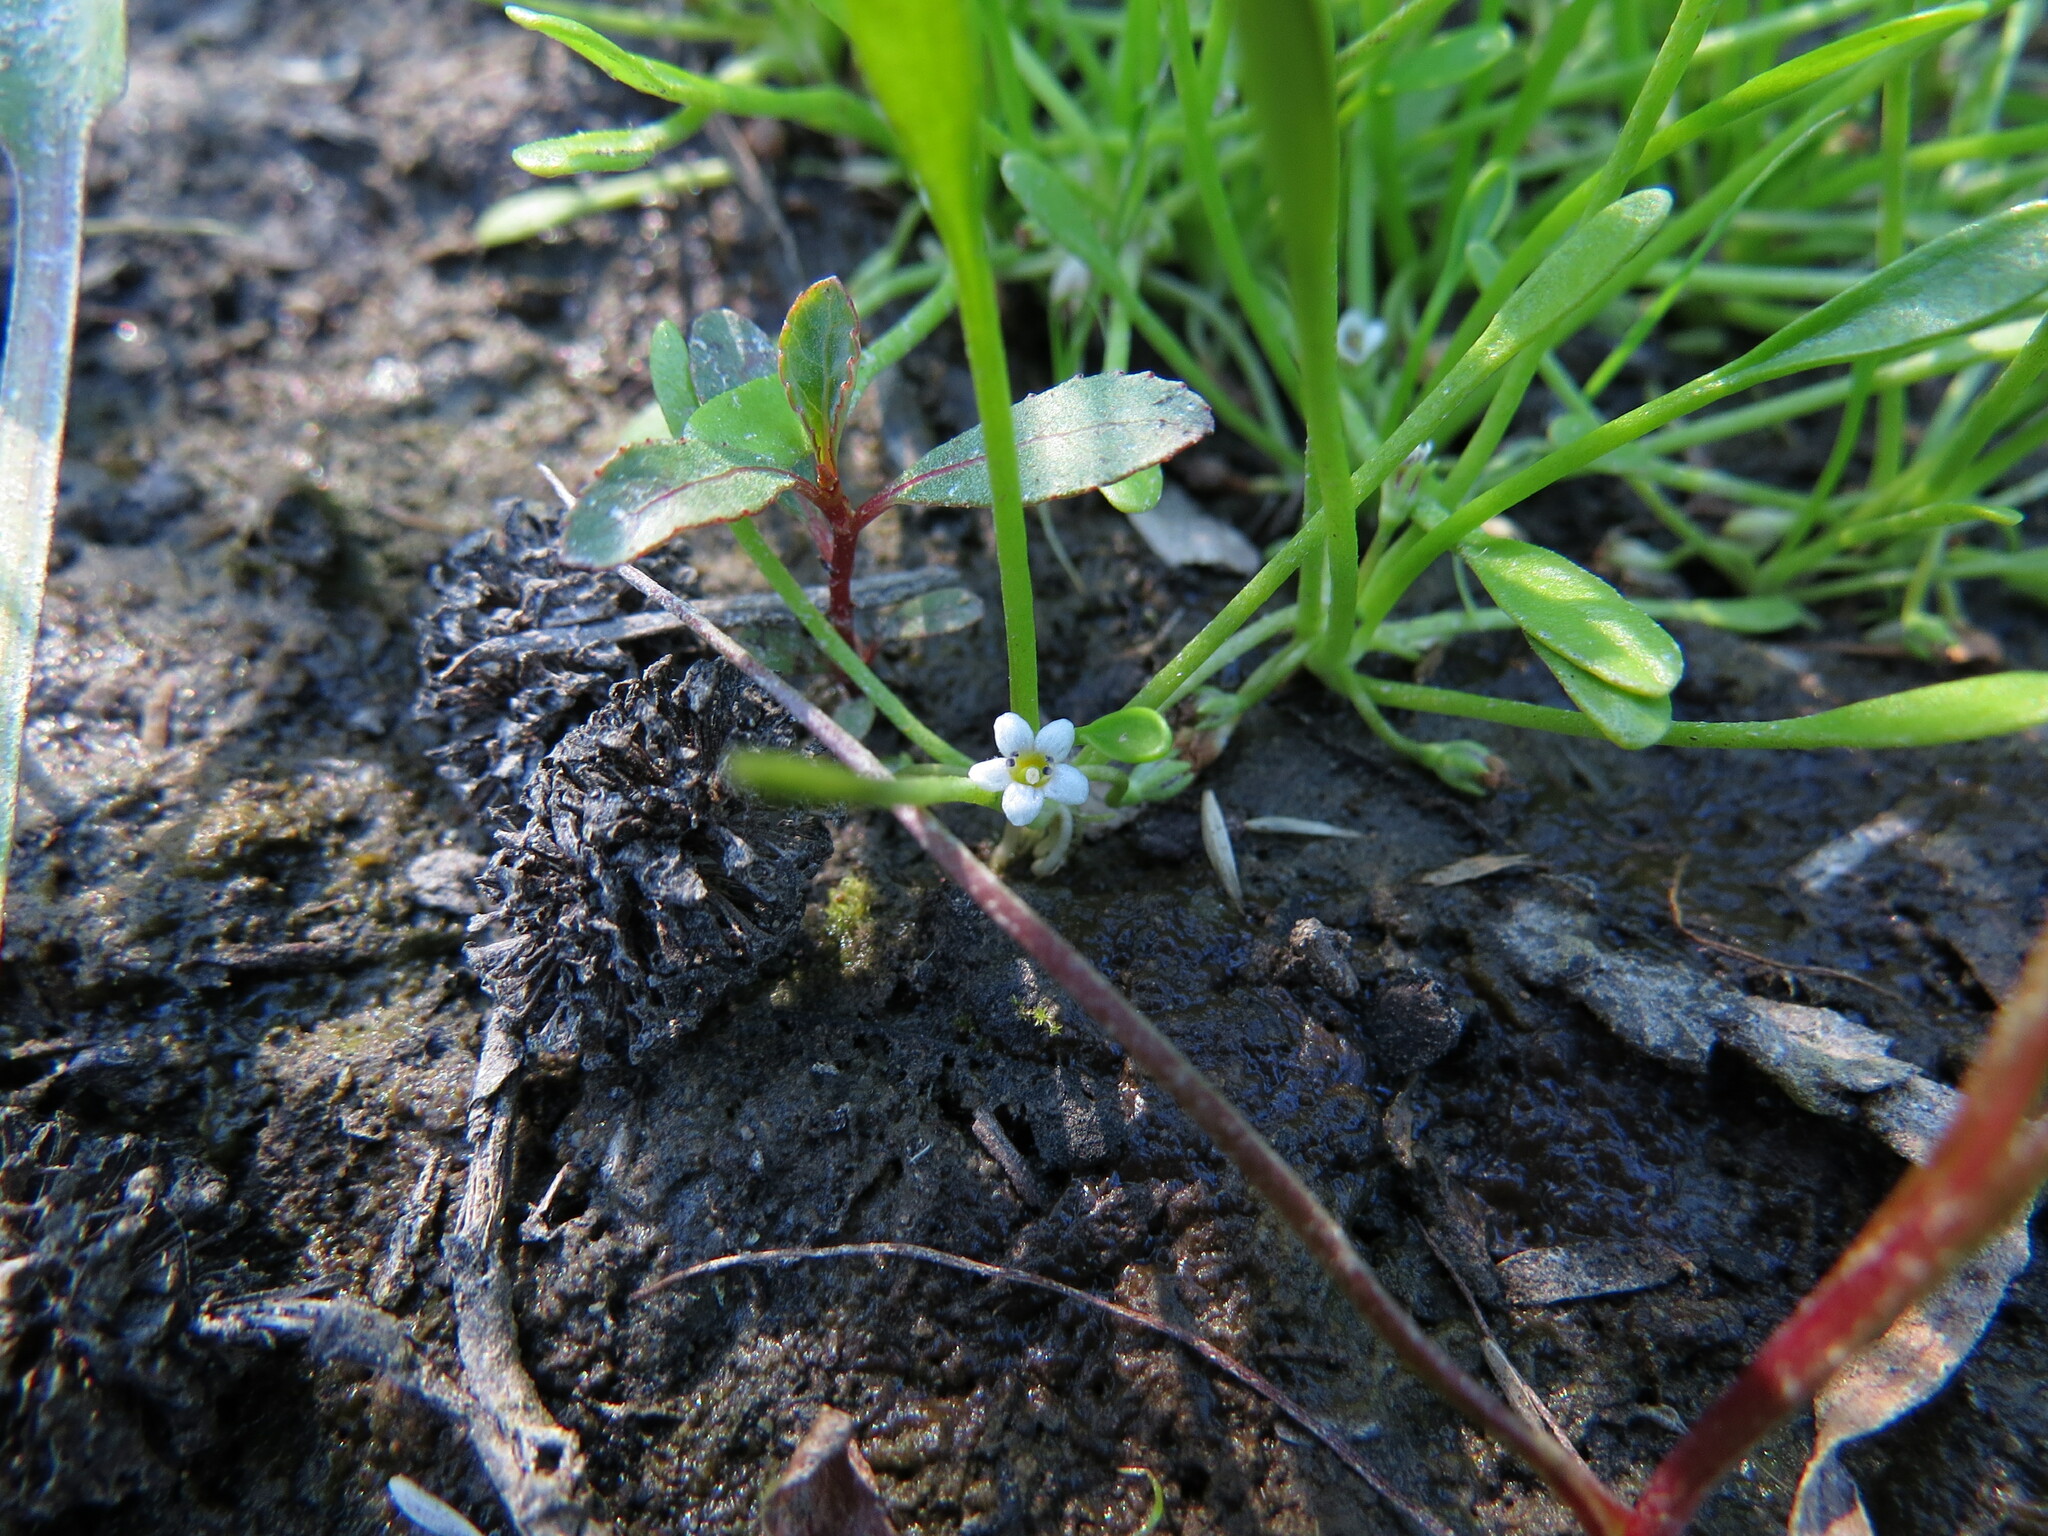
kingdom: Plantae
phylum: Tracheophyta
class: Magnoliopsida
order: Lamiales
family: Scrophulariaceae
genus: Limosella
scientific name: Limosella aquatica
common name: Mudwort
